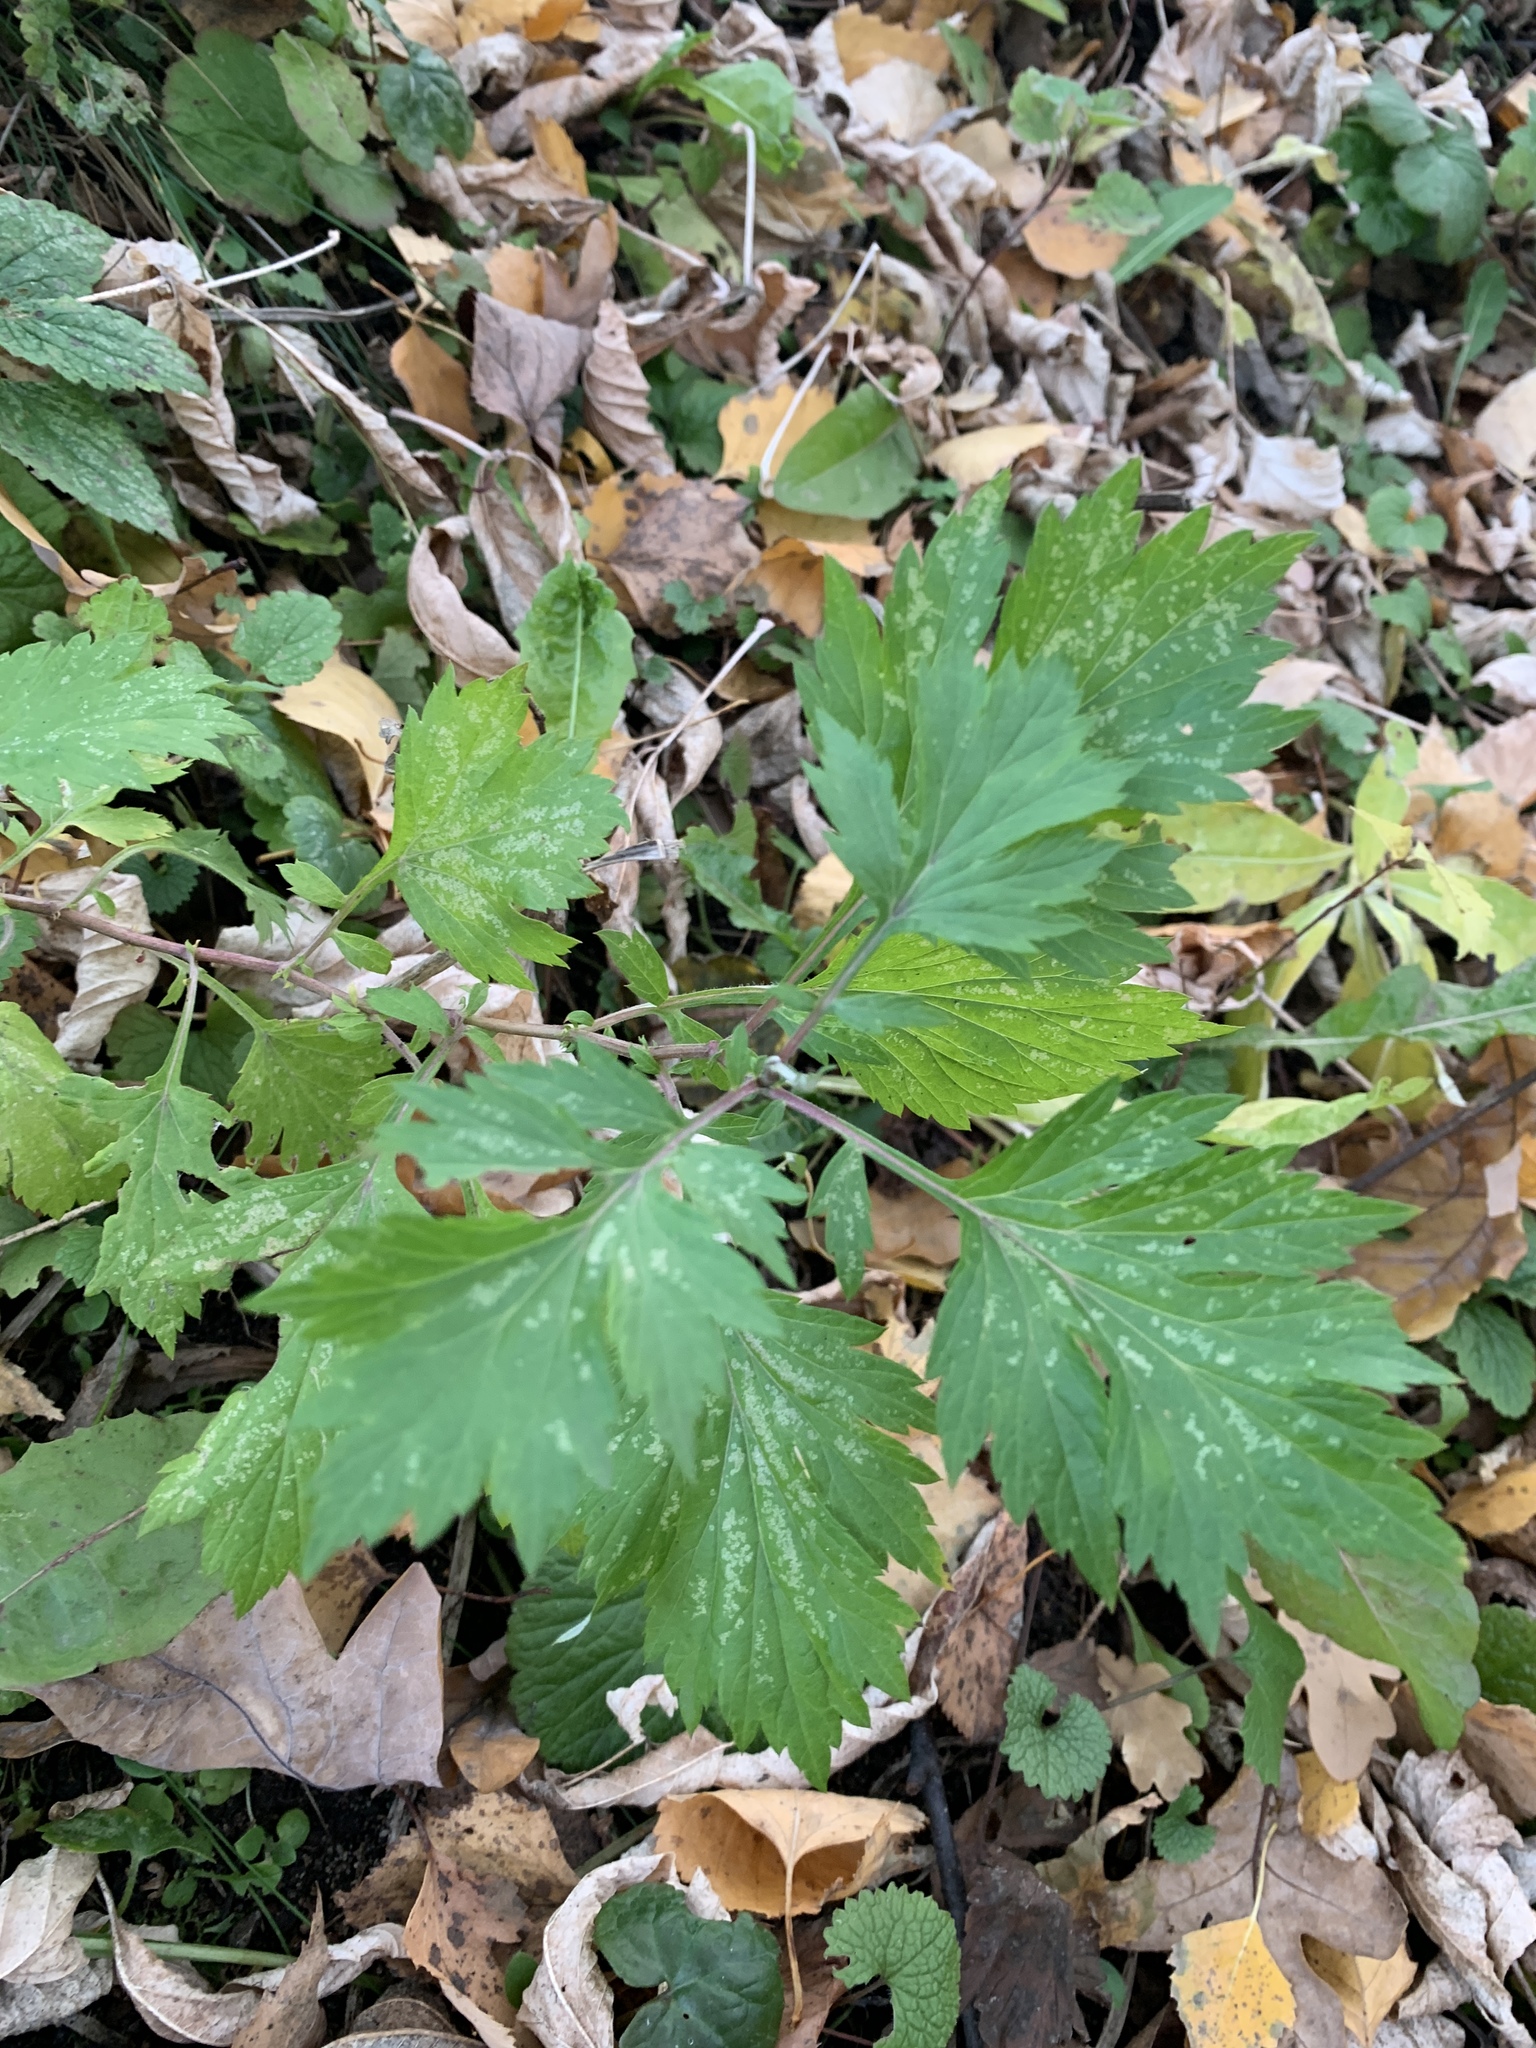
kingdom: Plantae
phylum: Tracheophyta
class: Magnoliopsida
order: Asterales
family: Asteraceae
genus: Artemisia
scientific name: Artemisia vulgaris
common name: Mugwort
